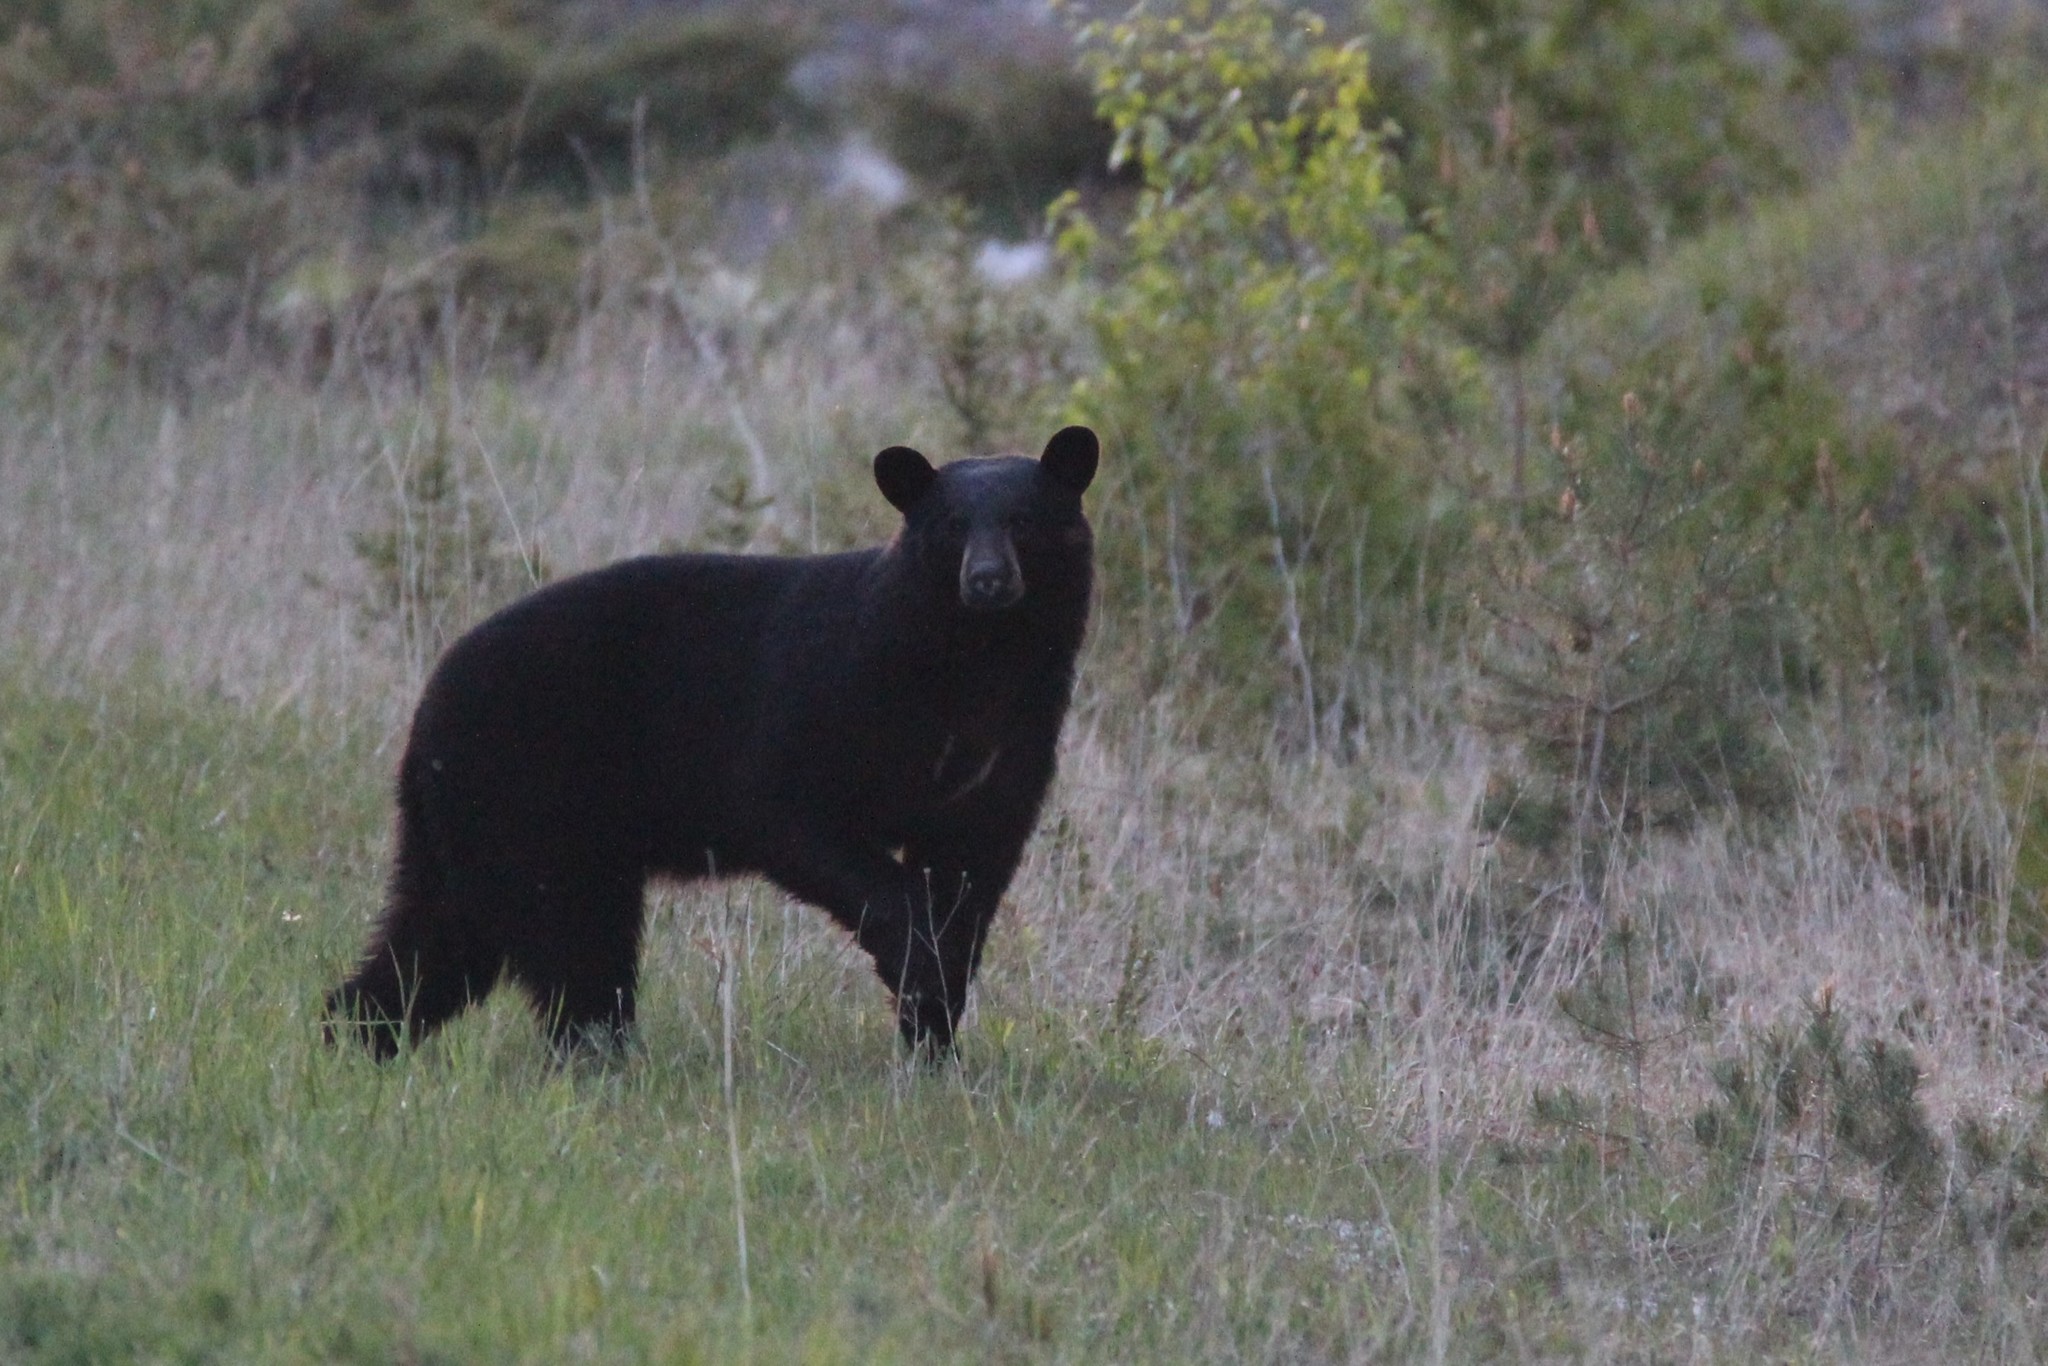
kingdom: Animalia
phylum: Chordata
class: Mammalia
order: Carnivora
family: Ursidae
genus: Ursus
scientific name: Ursus americanus
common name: American black bear
